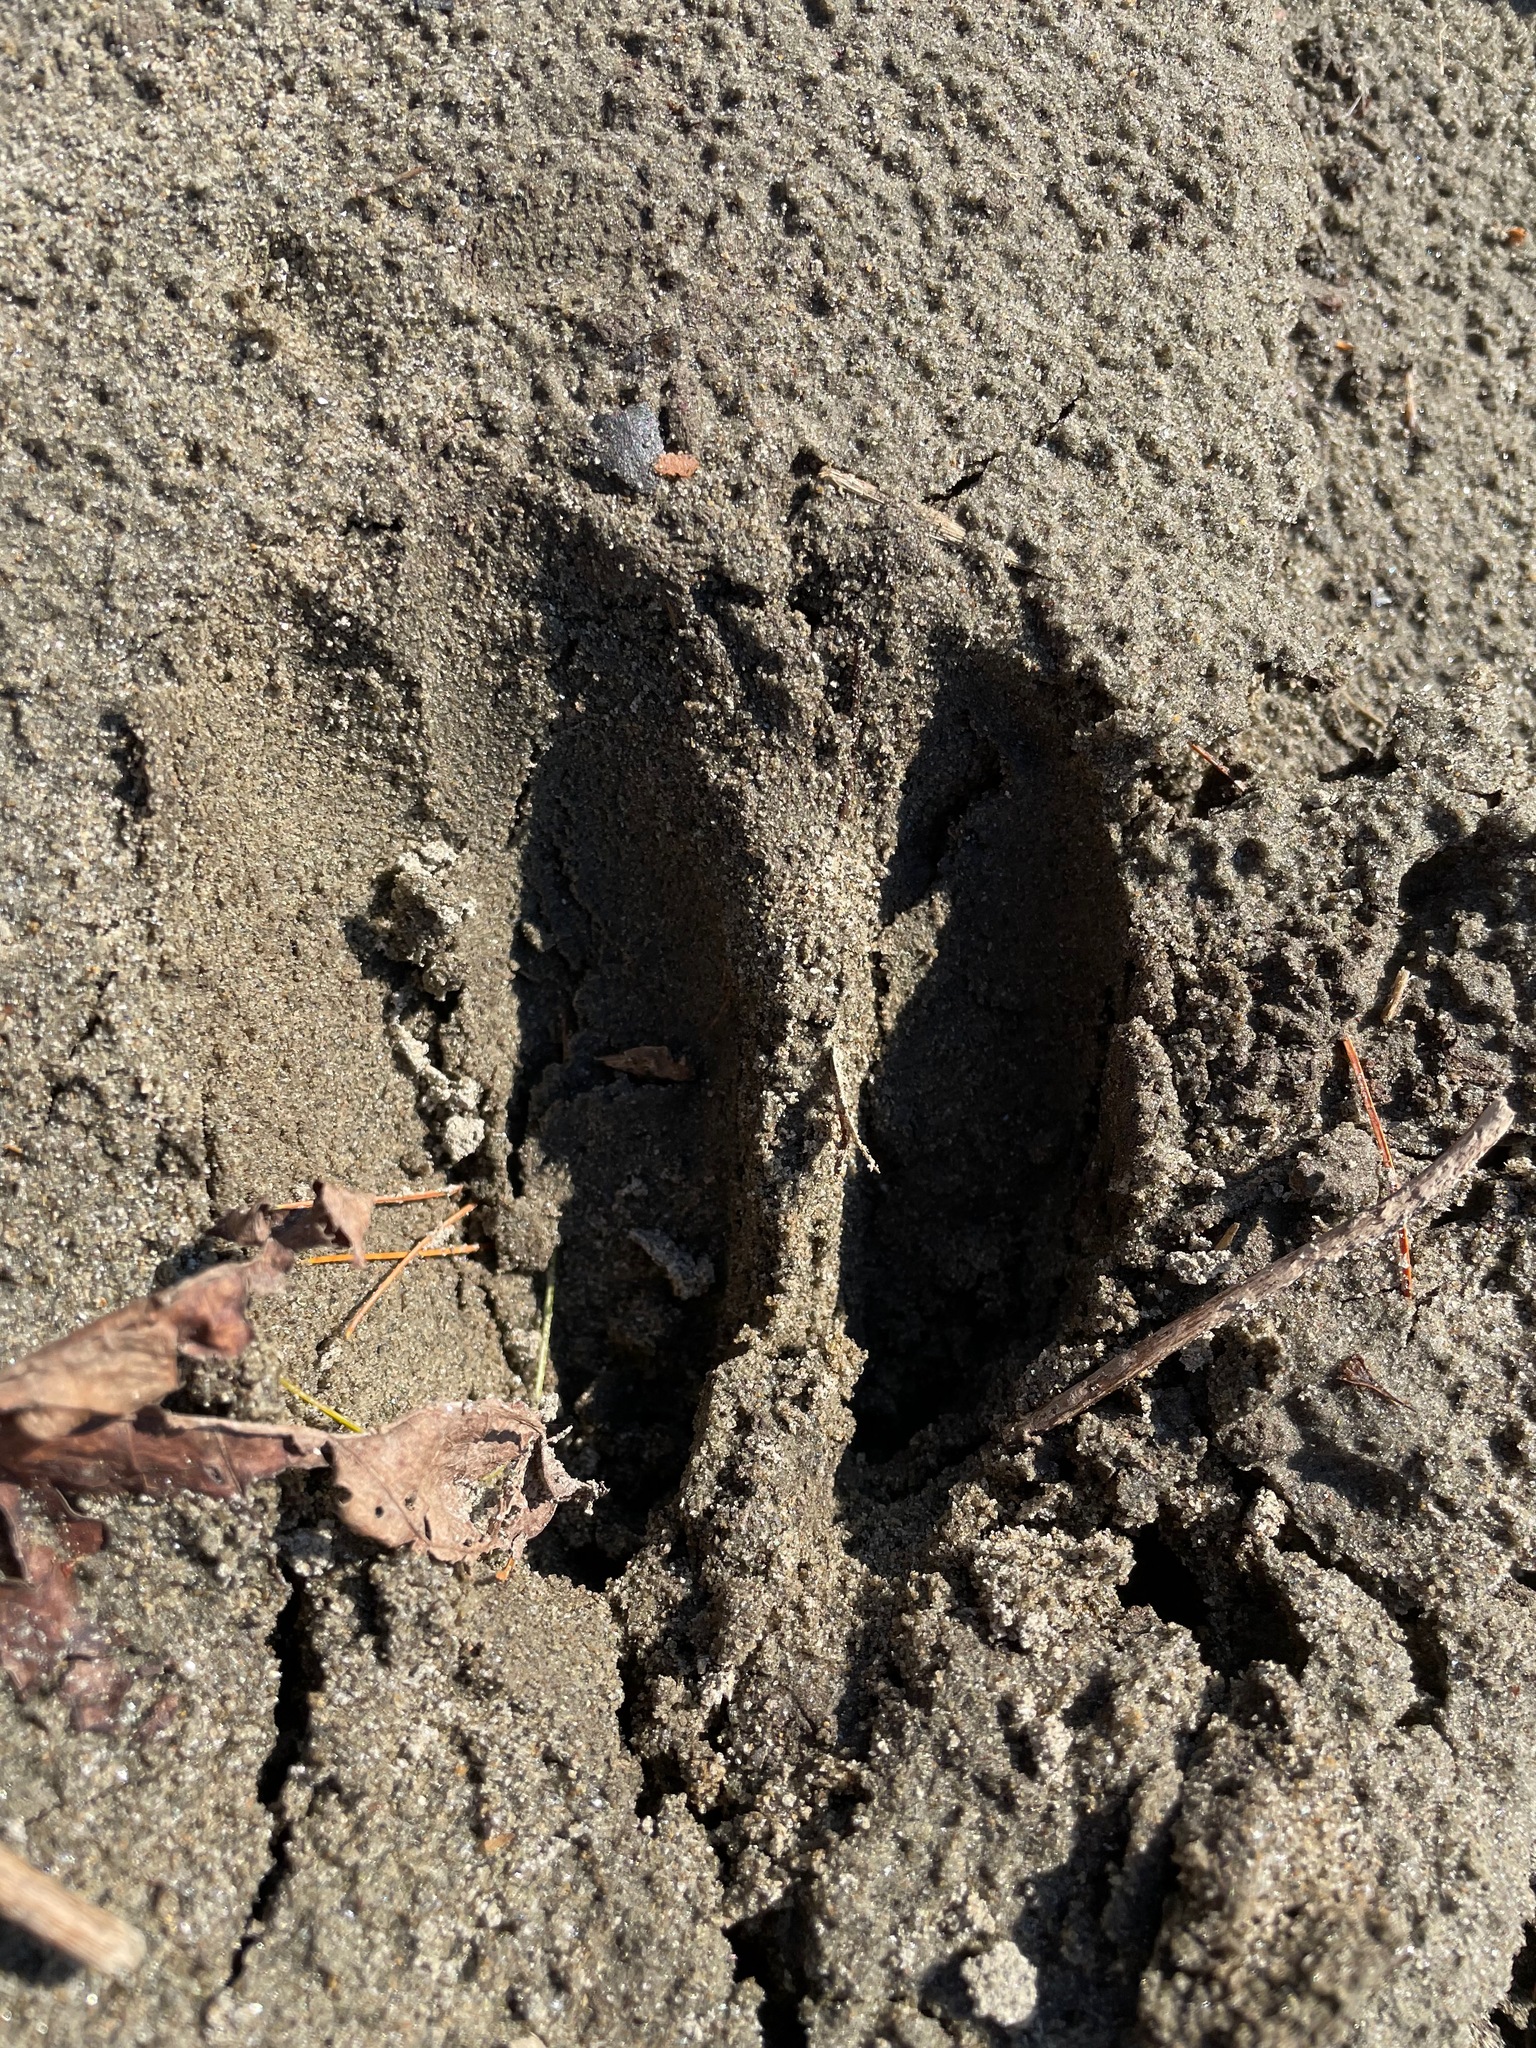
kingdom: Animalia
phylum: Chordata
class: Mammalia
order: Artiodactyla
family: Cervidae
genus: Odocoileus
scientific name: Odocoileus virginianus
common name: White-tailed deer
